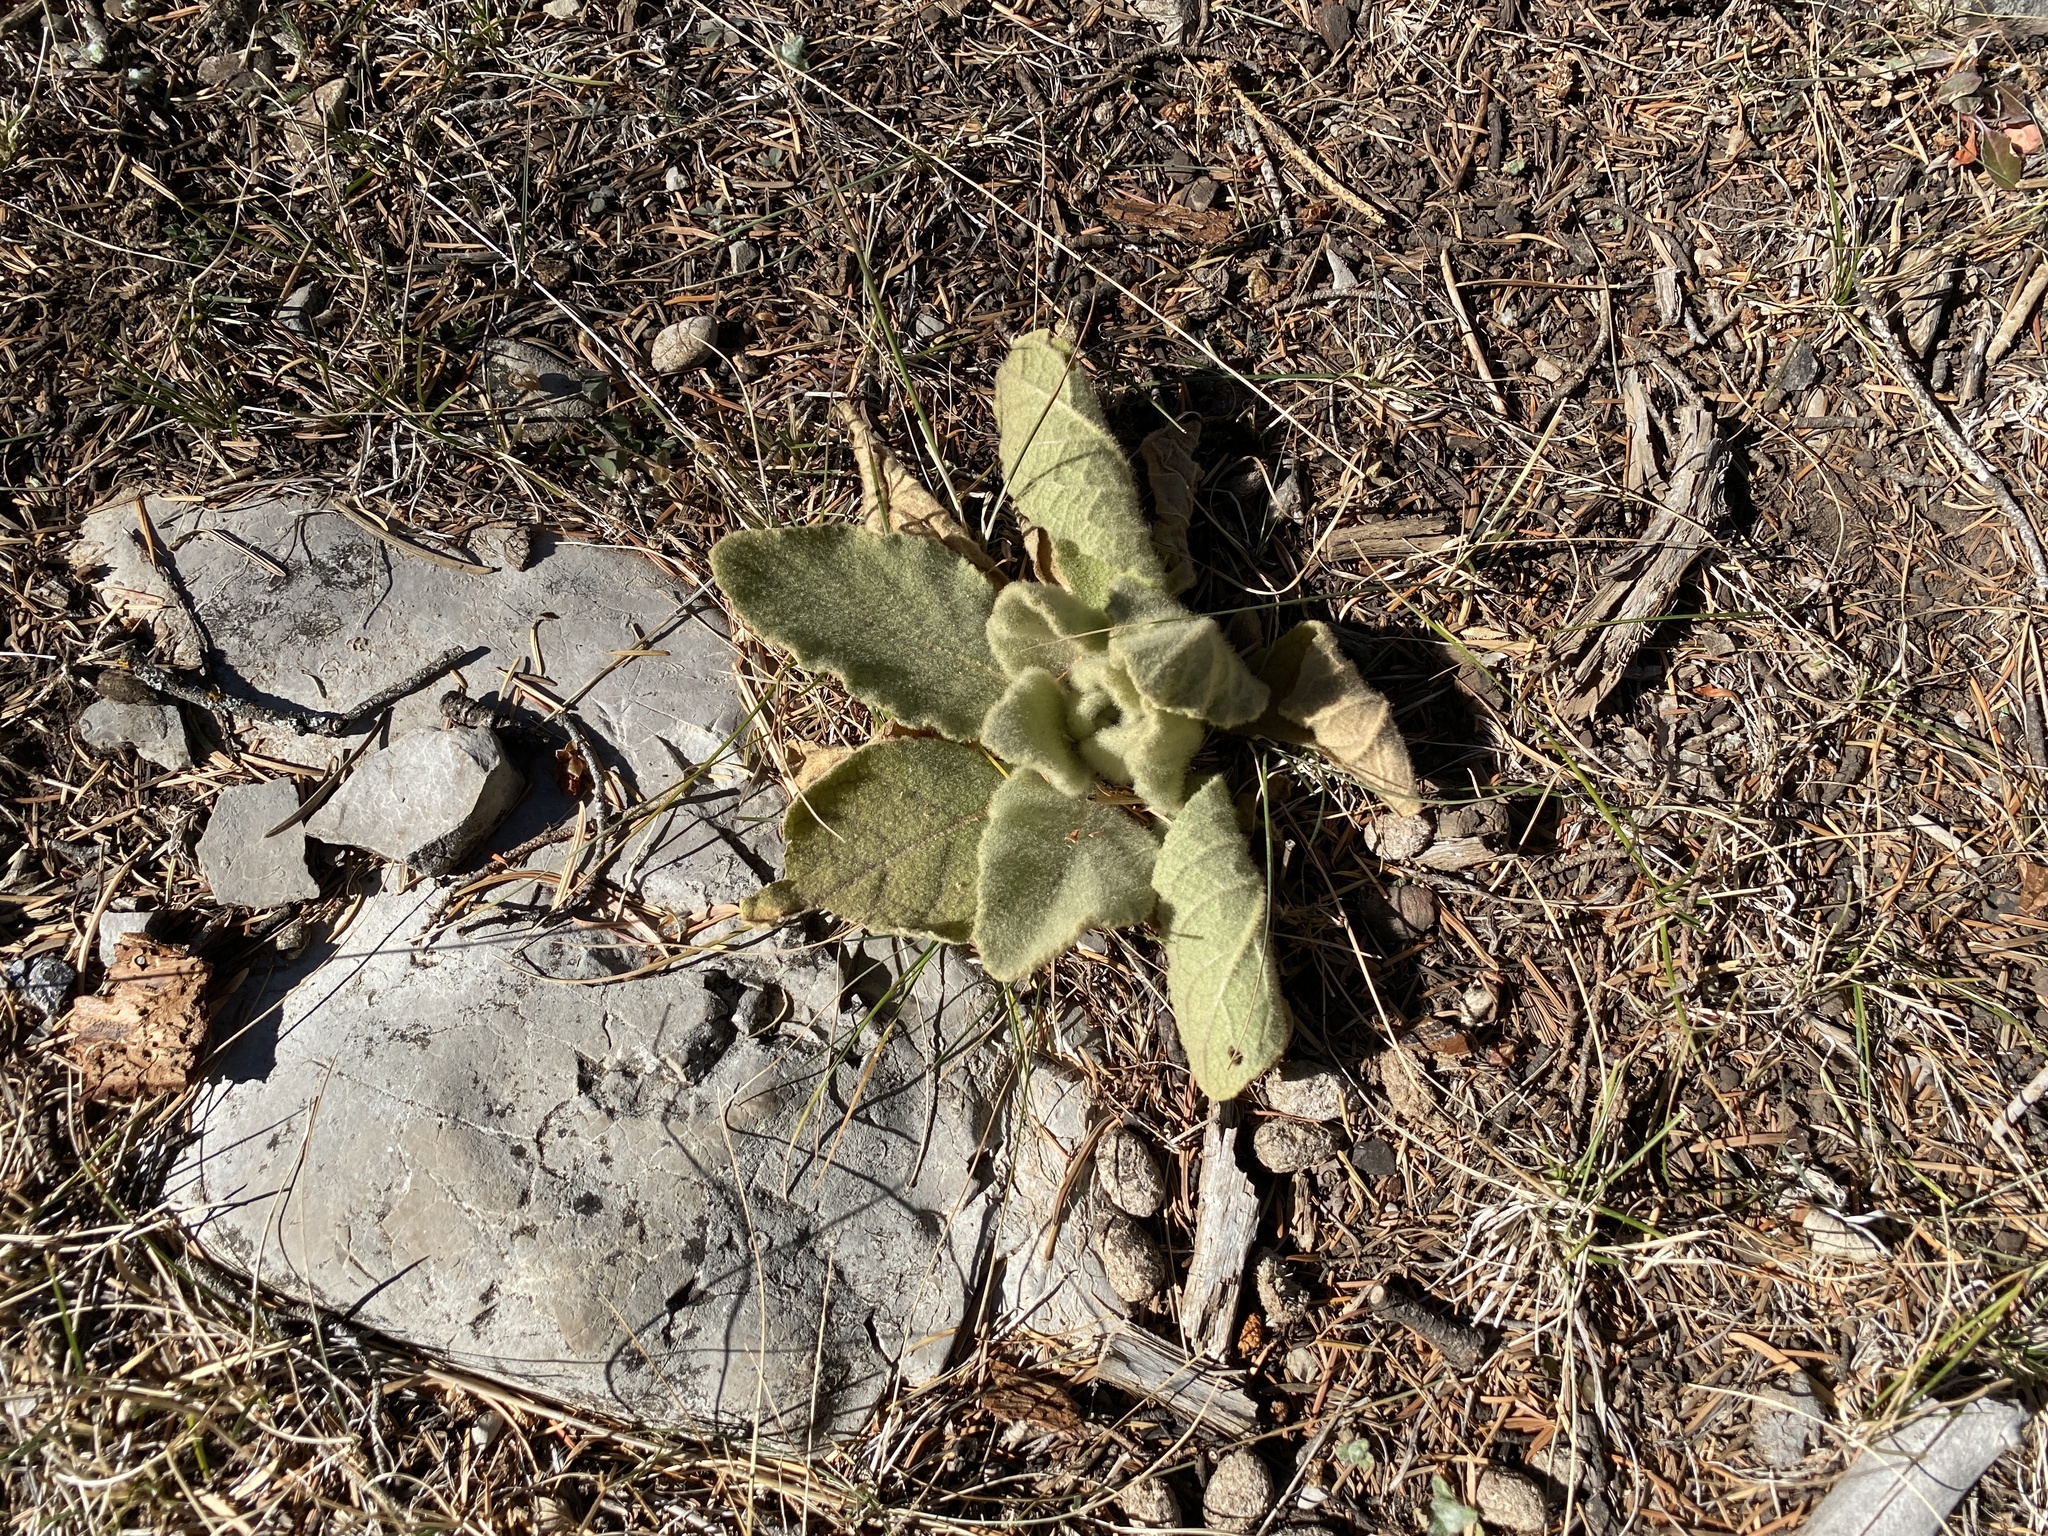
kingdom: Plantae
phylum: Tracheophyta
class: Magnoliopsida
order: Lamiales
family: Scrophulariaceae
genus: Verbascum
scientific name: Verbascum thapsus
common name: Common mullein
